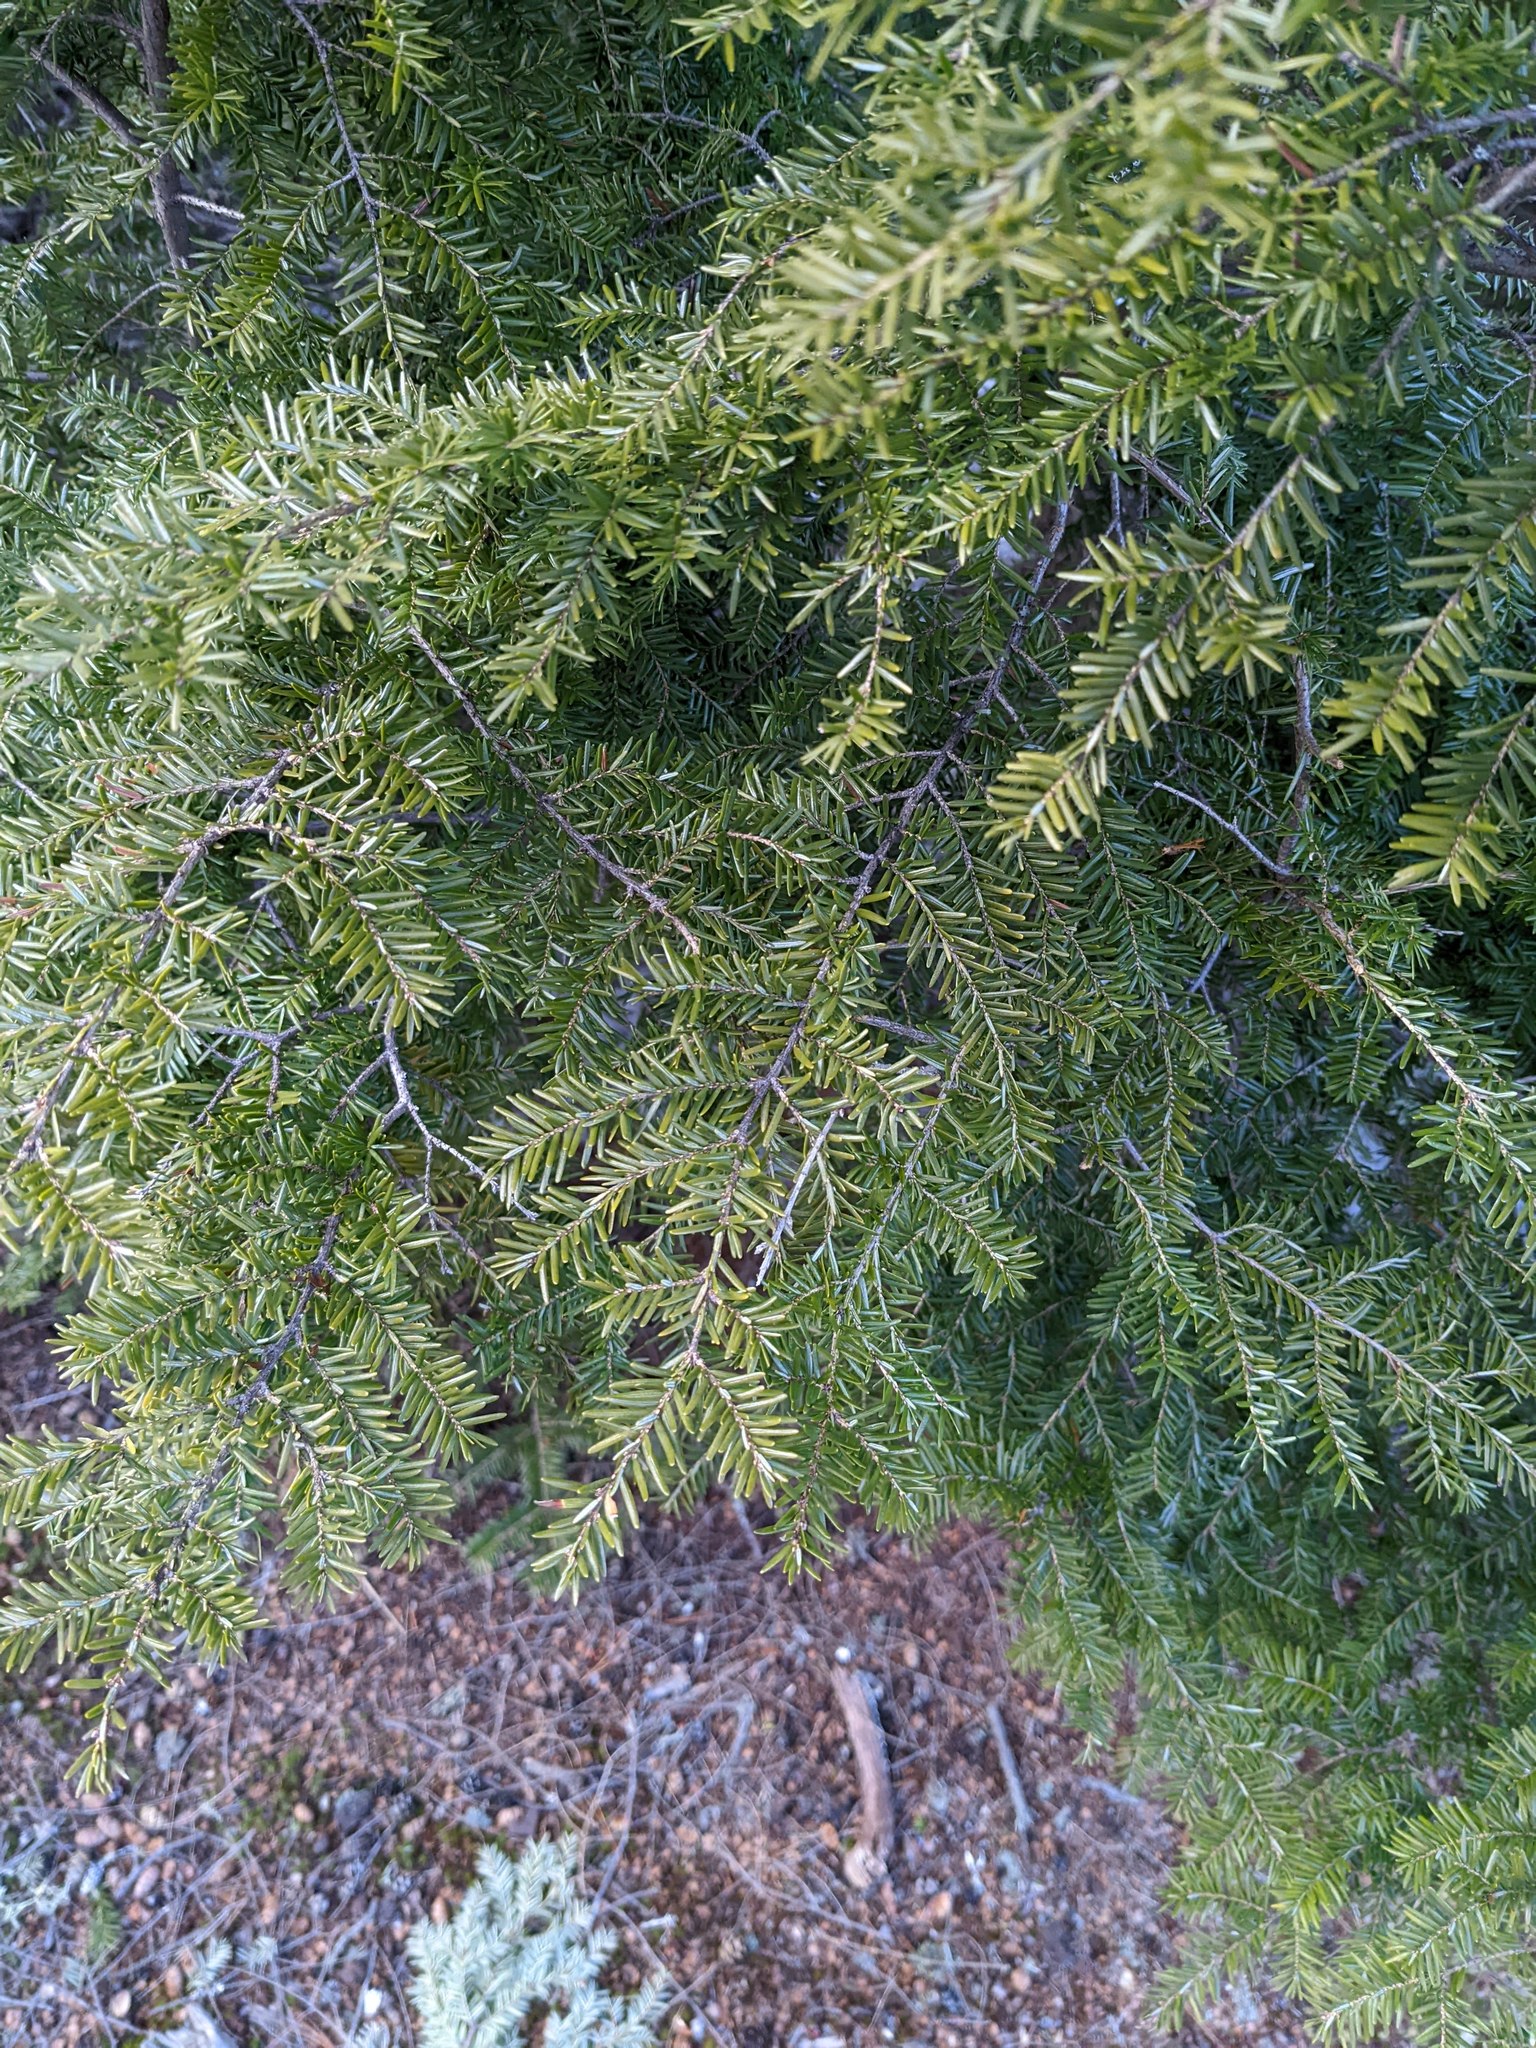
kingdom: Plantae
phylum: Tracheophyta
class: Pinopsida
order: Pinales
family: Pinaceae
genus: Tsuga
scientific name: Tsuga canadensis
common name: Eastern hemlock
